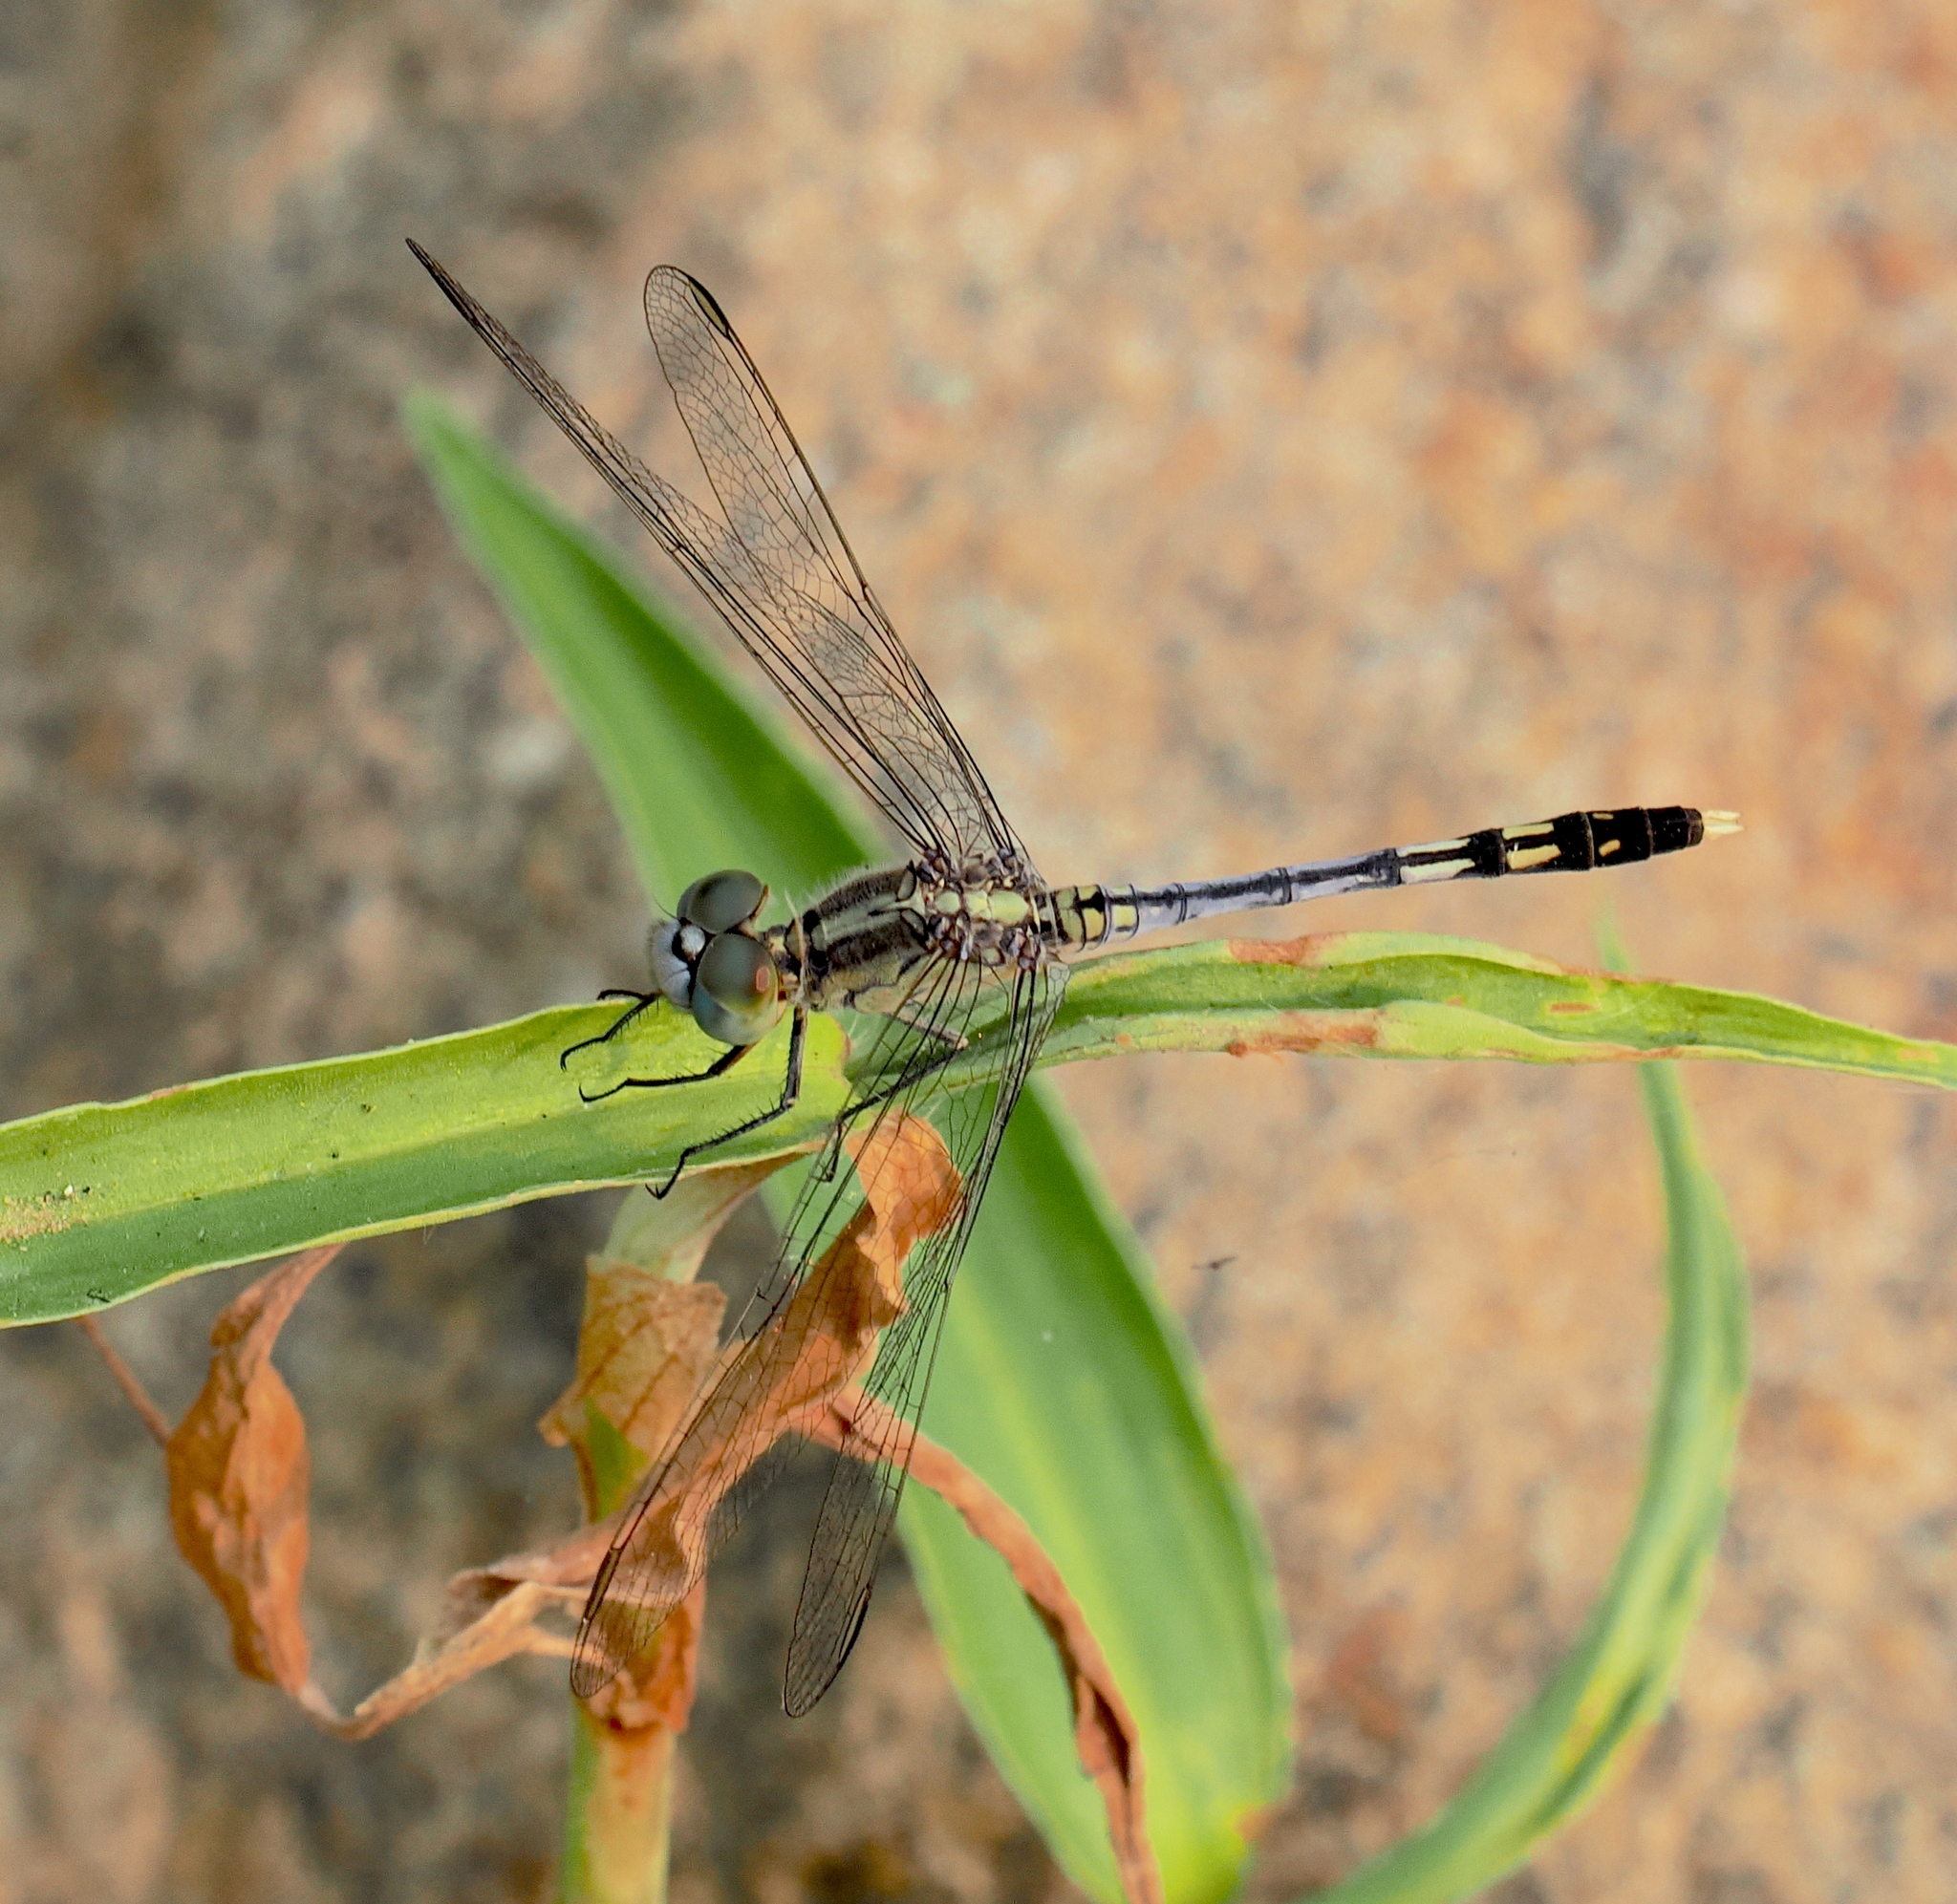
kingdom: Animalia
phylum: Arthropoda
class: Insecta
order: Odonata
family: Libellulidae
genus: Diplacodes
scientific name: Diplacodes trivialis
